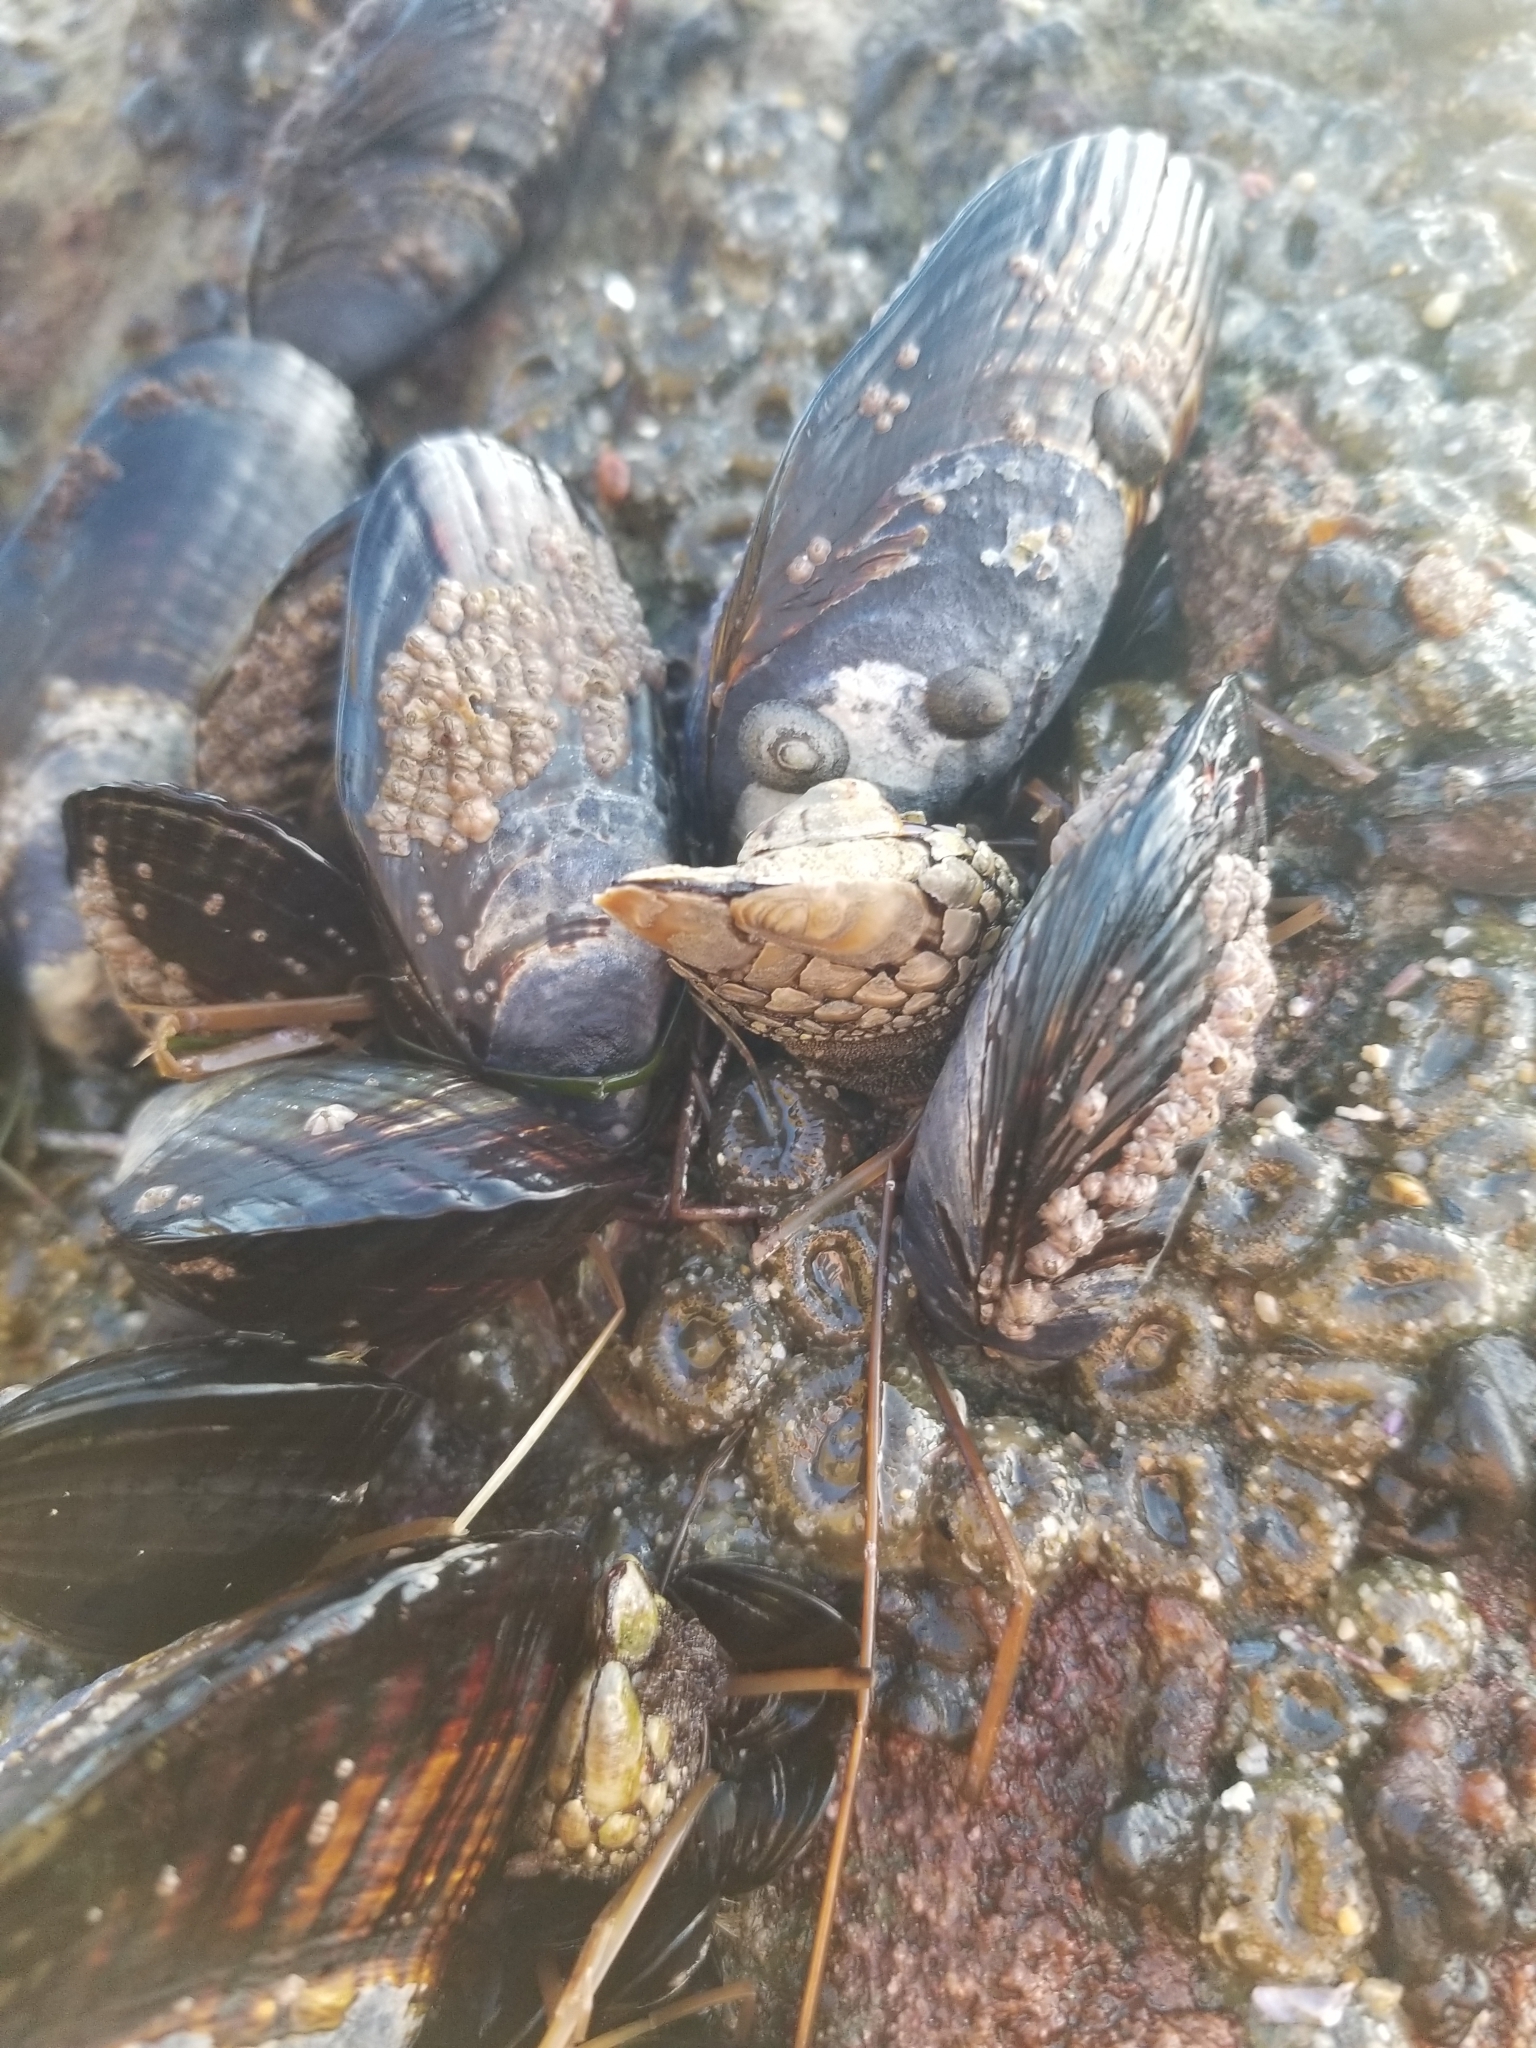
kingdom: Animalia
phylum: Arthropoda
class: Maxillopoda
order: Pedunculata
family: Pollicipedidae
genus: Pollicipes
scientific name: Pollicipes polymerus
